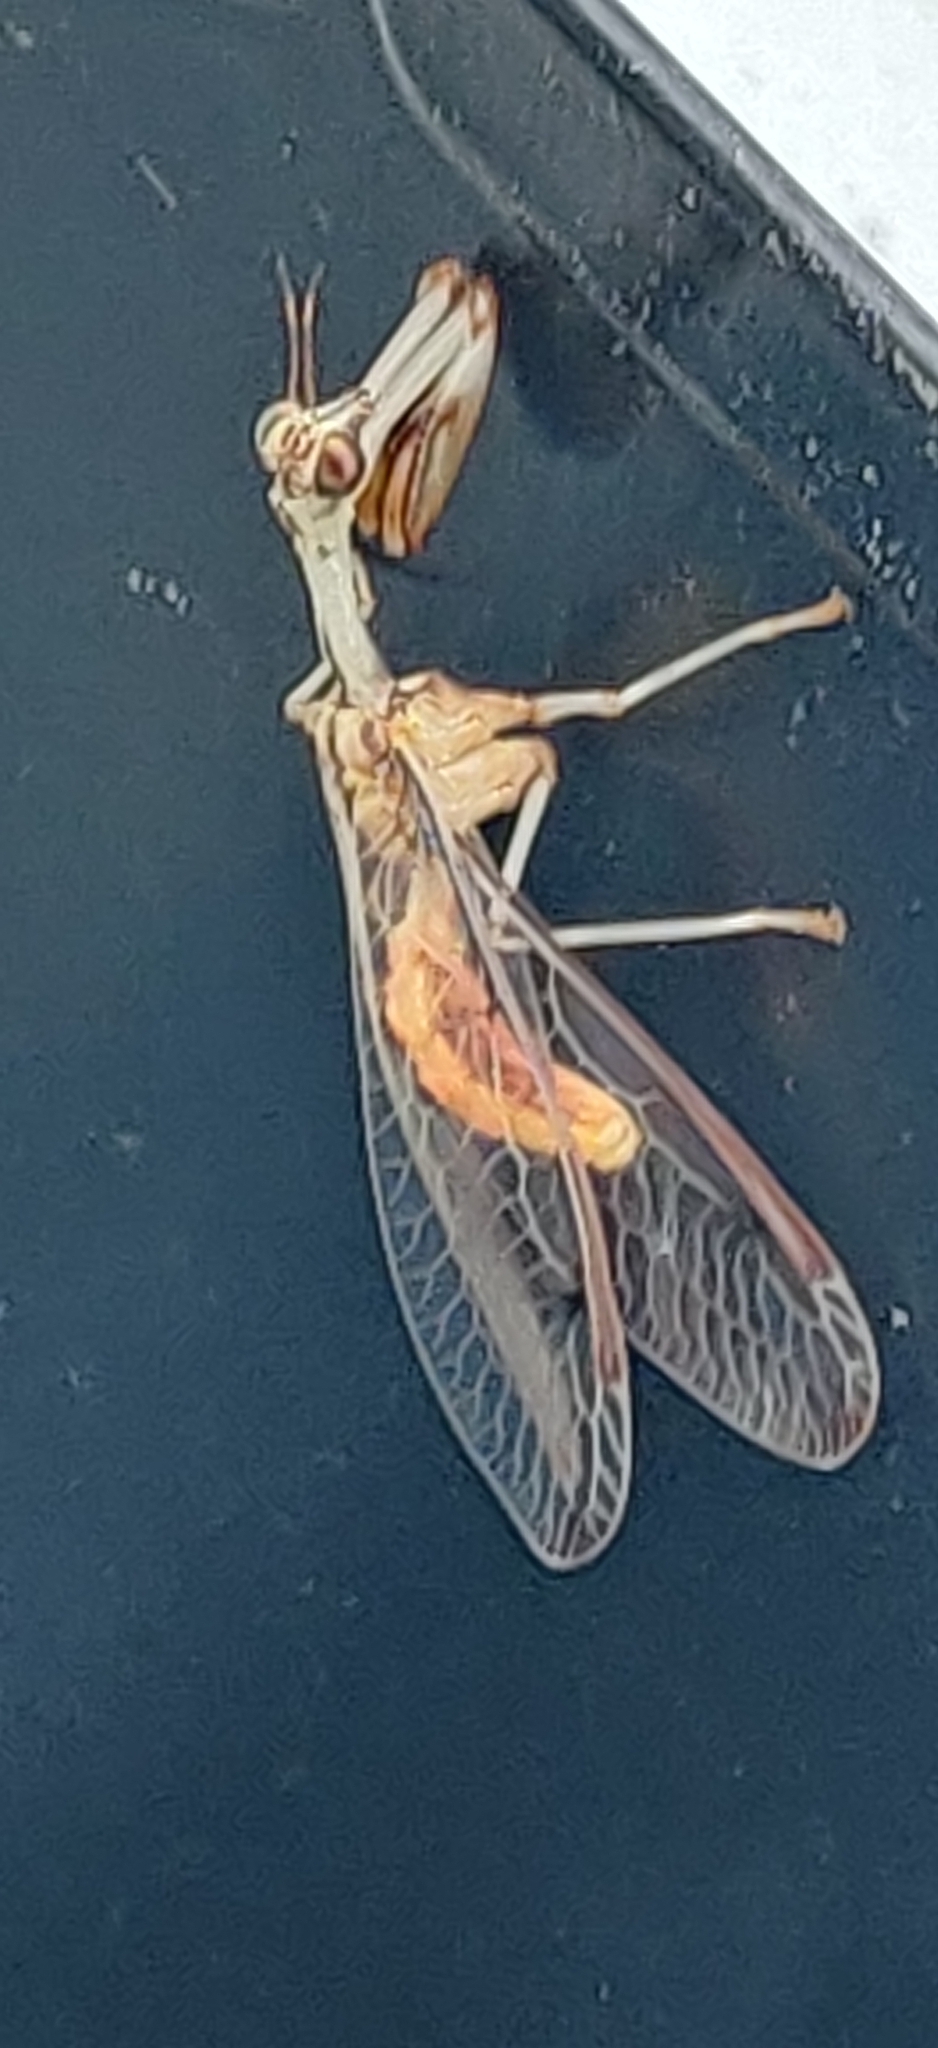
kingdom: Animalia
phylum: Arthropoda
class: Insecta
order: Neuroptera
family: Mantispidae
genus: Dicromantispa
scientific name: Dicromantispa interrupta
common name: Four-spotted mantidfly
